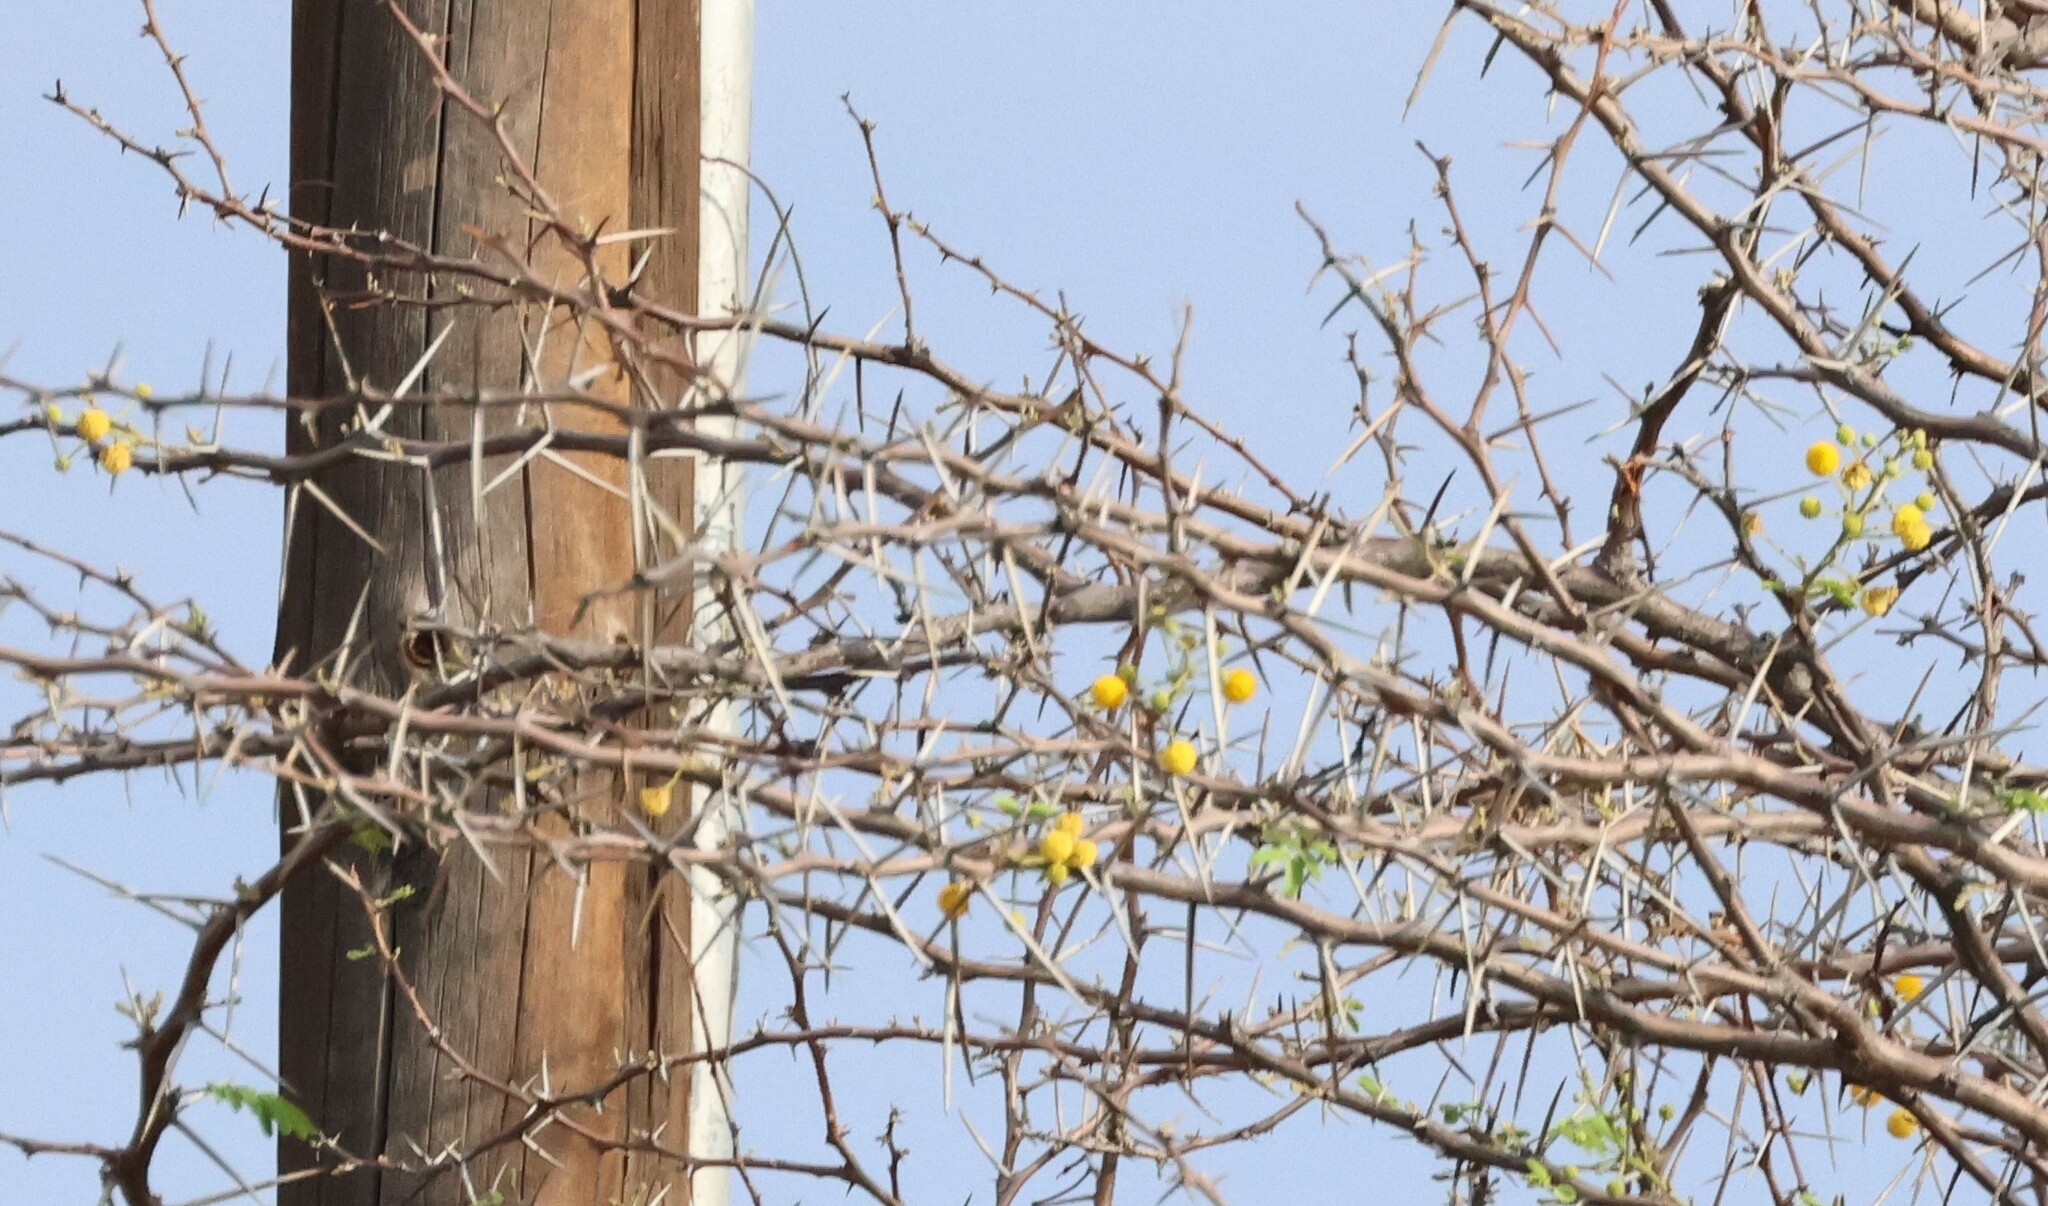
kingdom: Plantae
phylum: Tracheophyta
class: Magnoliopsida
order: Fabales
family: Fabaceae
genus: Vachellia
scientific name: Vachellia erioloba
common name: Camel thorn
